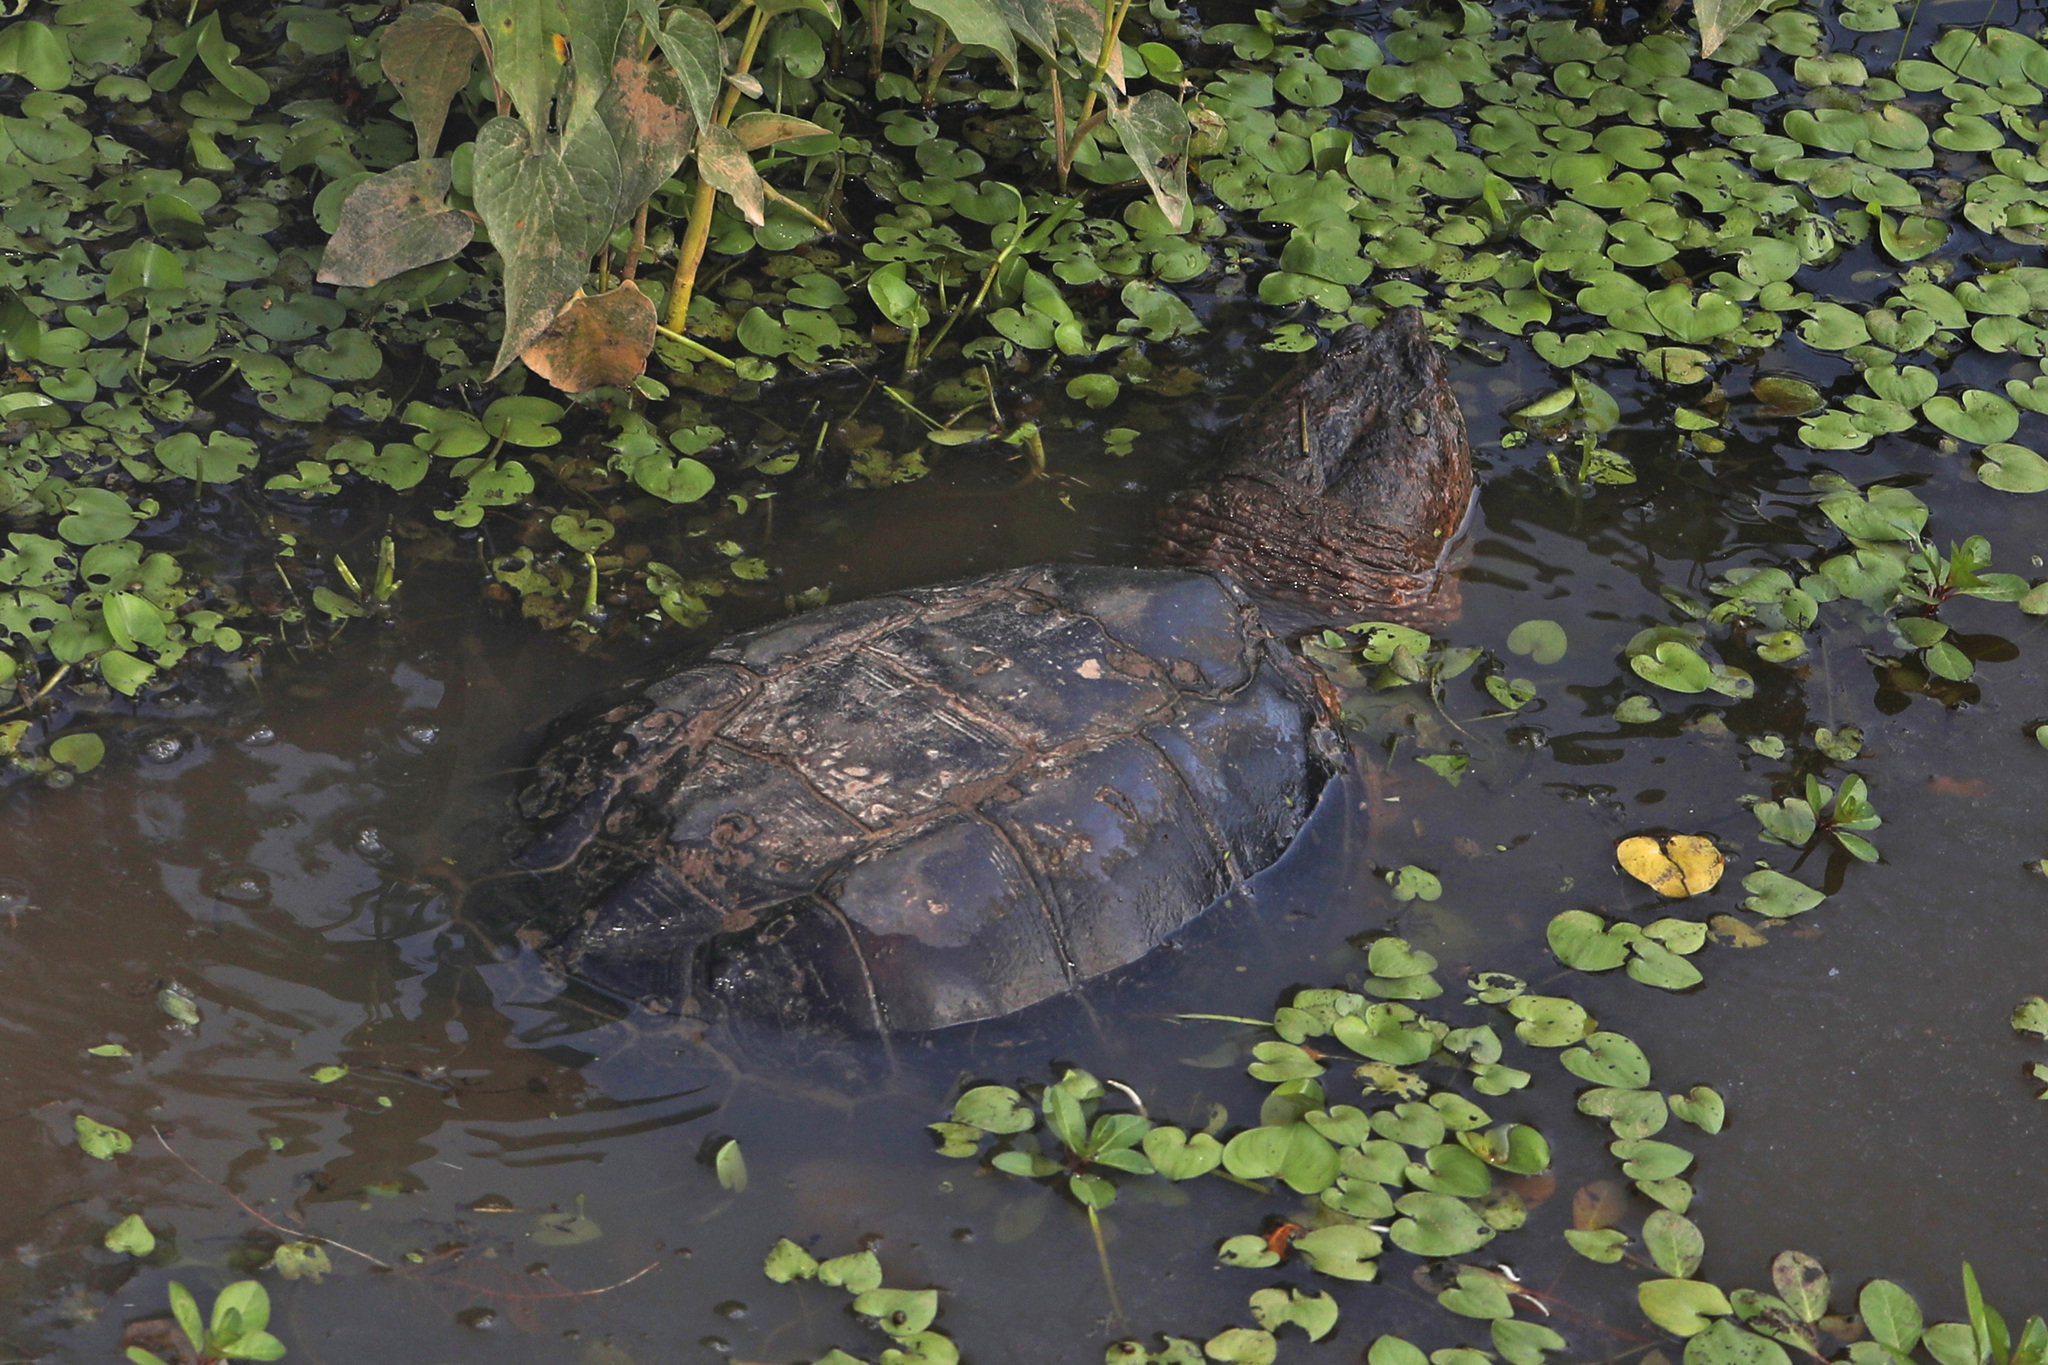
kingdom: Animalia
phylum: Chordata
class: Testudines
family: Chelydridae
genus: Chelydra
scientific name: Chelydra serpentina
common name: Common snapping turtle
